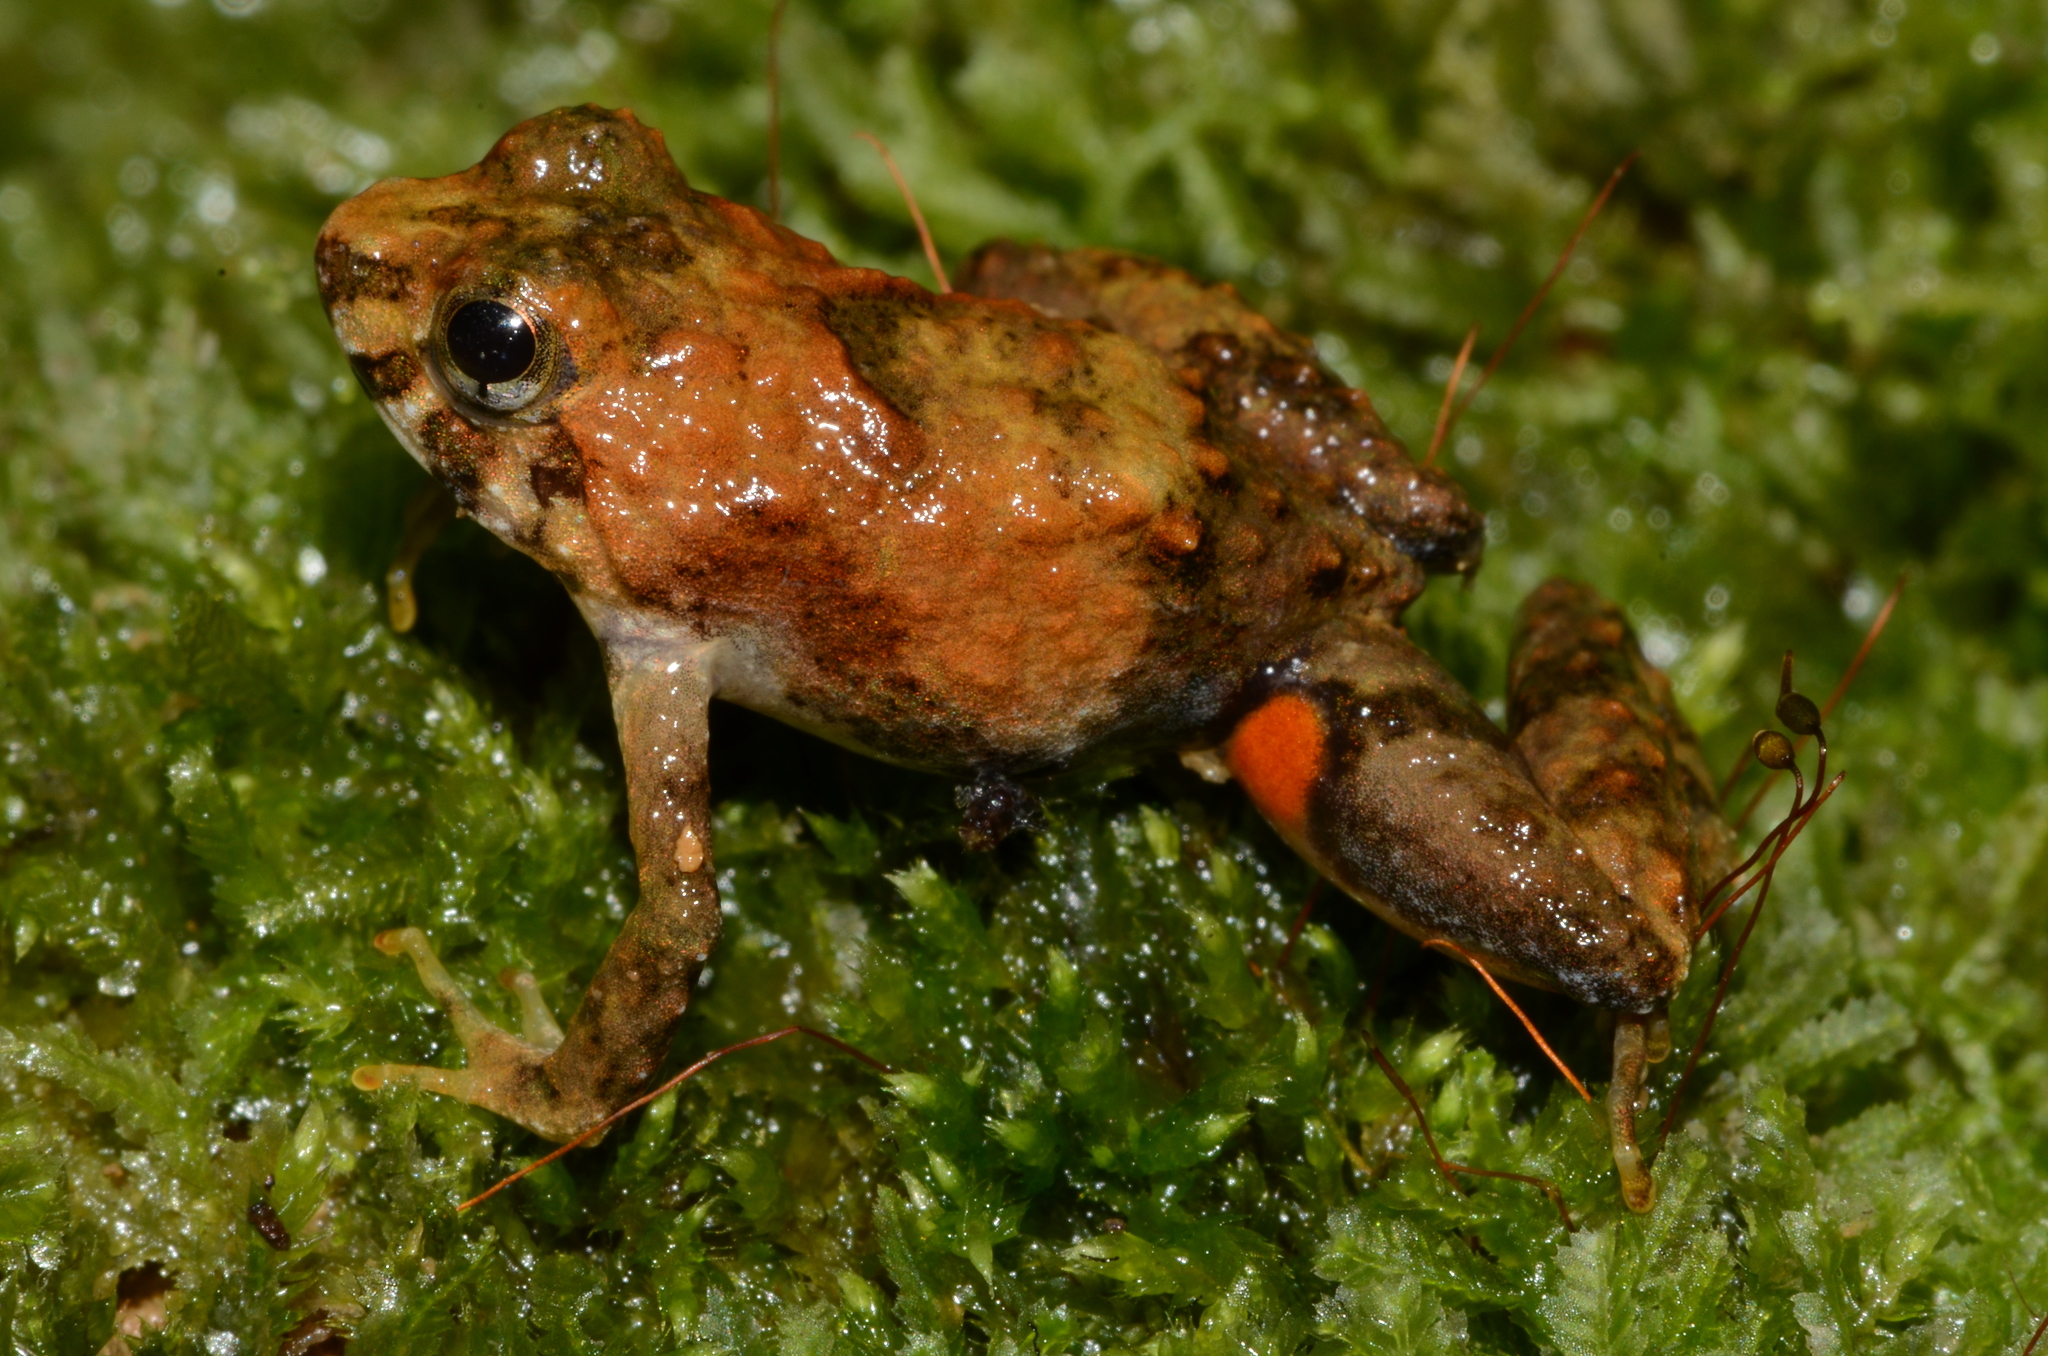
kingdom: Animalia
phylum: Chordata
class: Amphibia
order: Anura
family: Phrynobatrachidae
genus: Phrynobatrachus
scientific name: Phrynobatrachus mayokoensis
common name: Mayoko puddle frog
